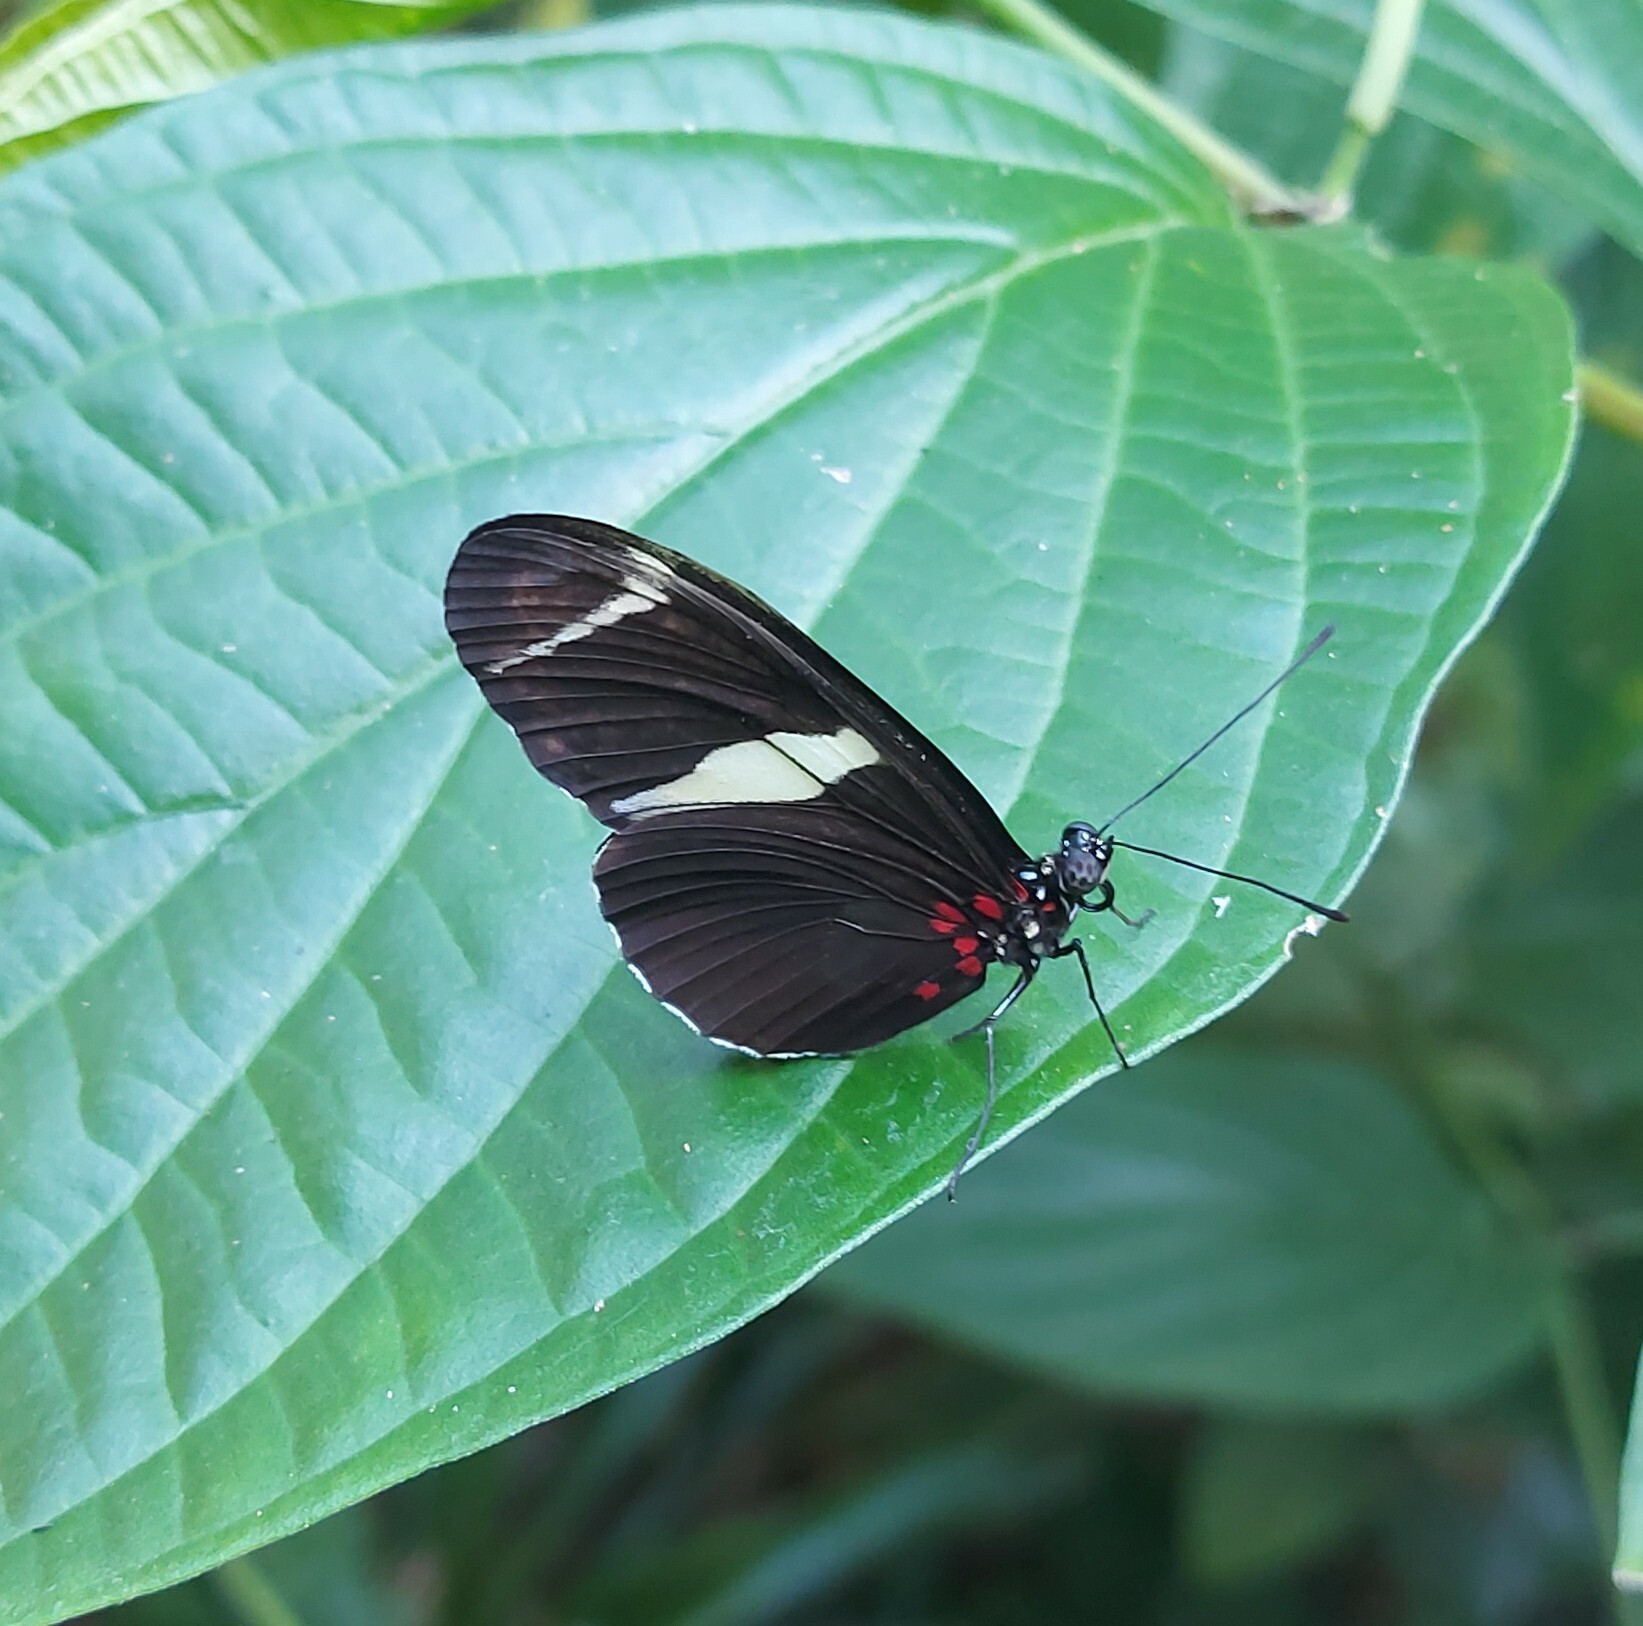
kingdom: Animalia
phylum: Arthropoda
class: Insecta
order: Lepidoptera
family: Nymphalidae
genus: Heliconius
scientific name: Heliconius sara
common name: Sara longwing
